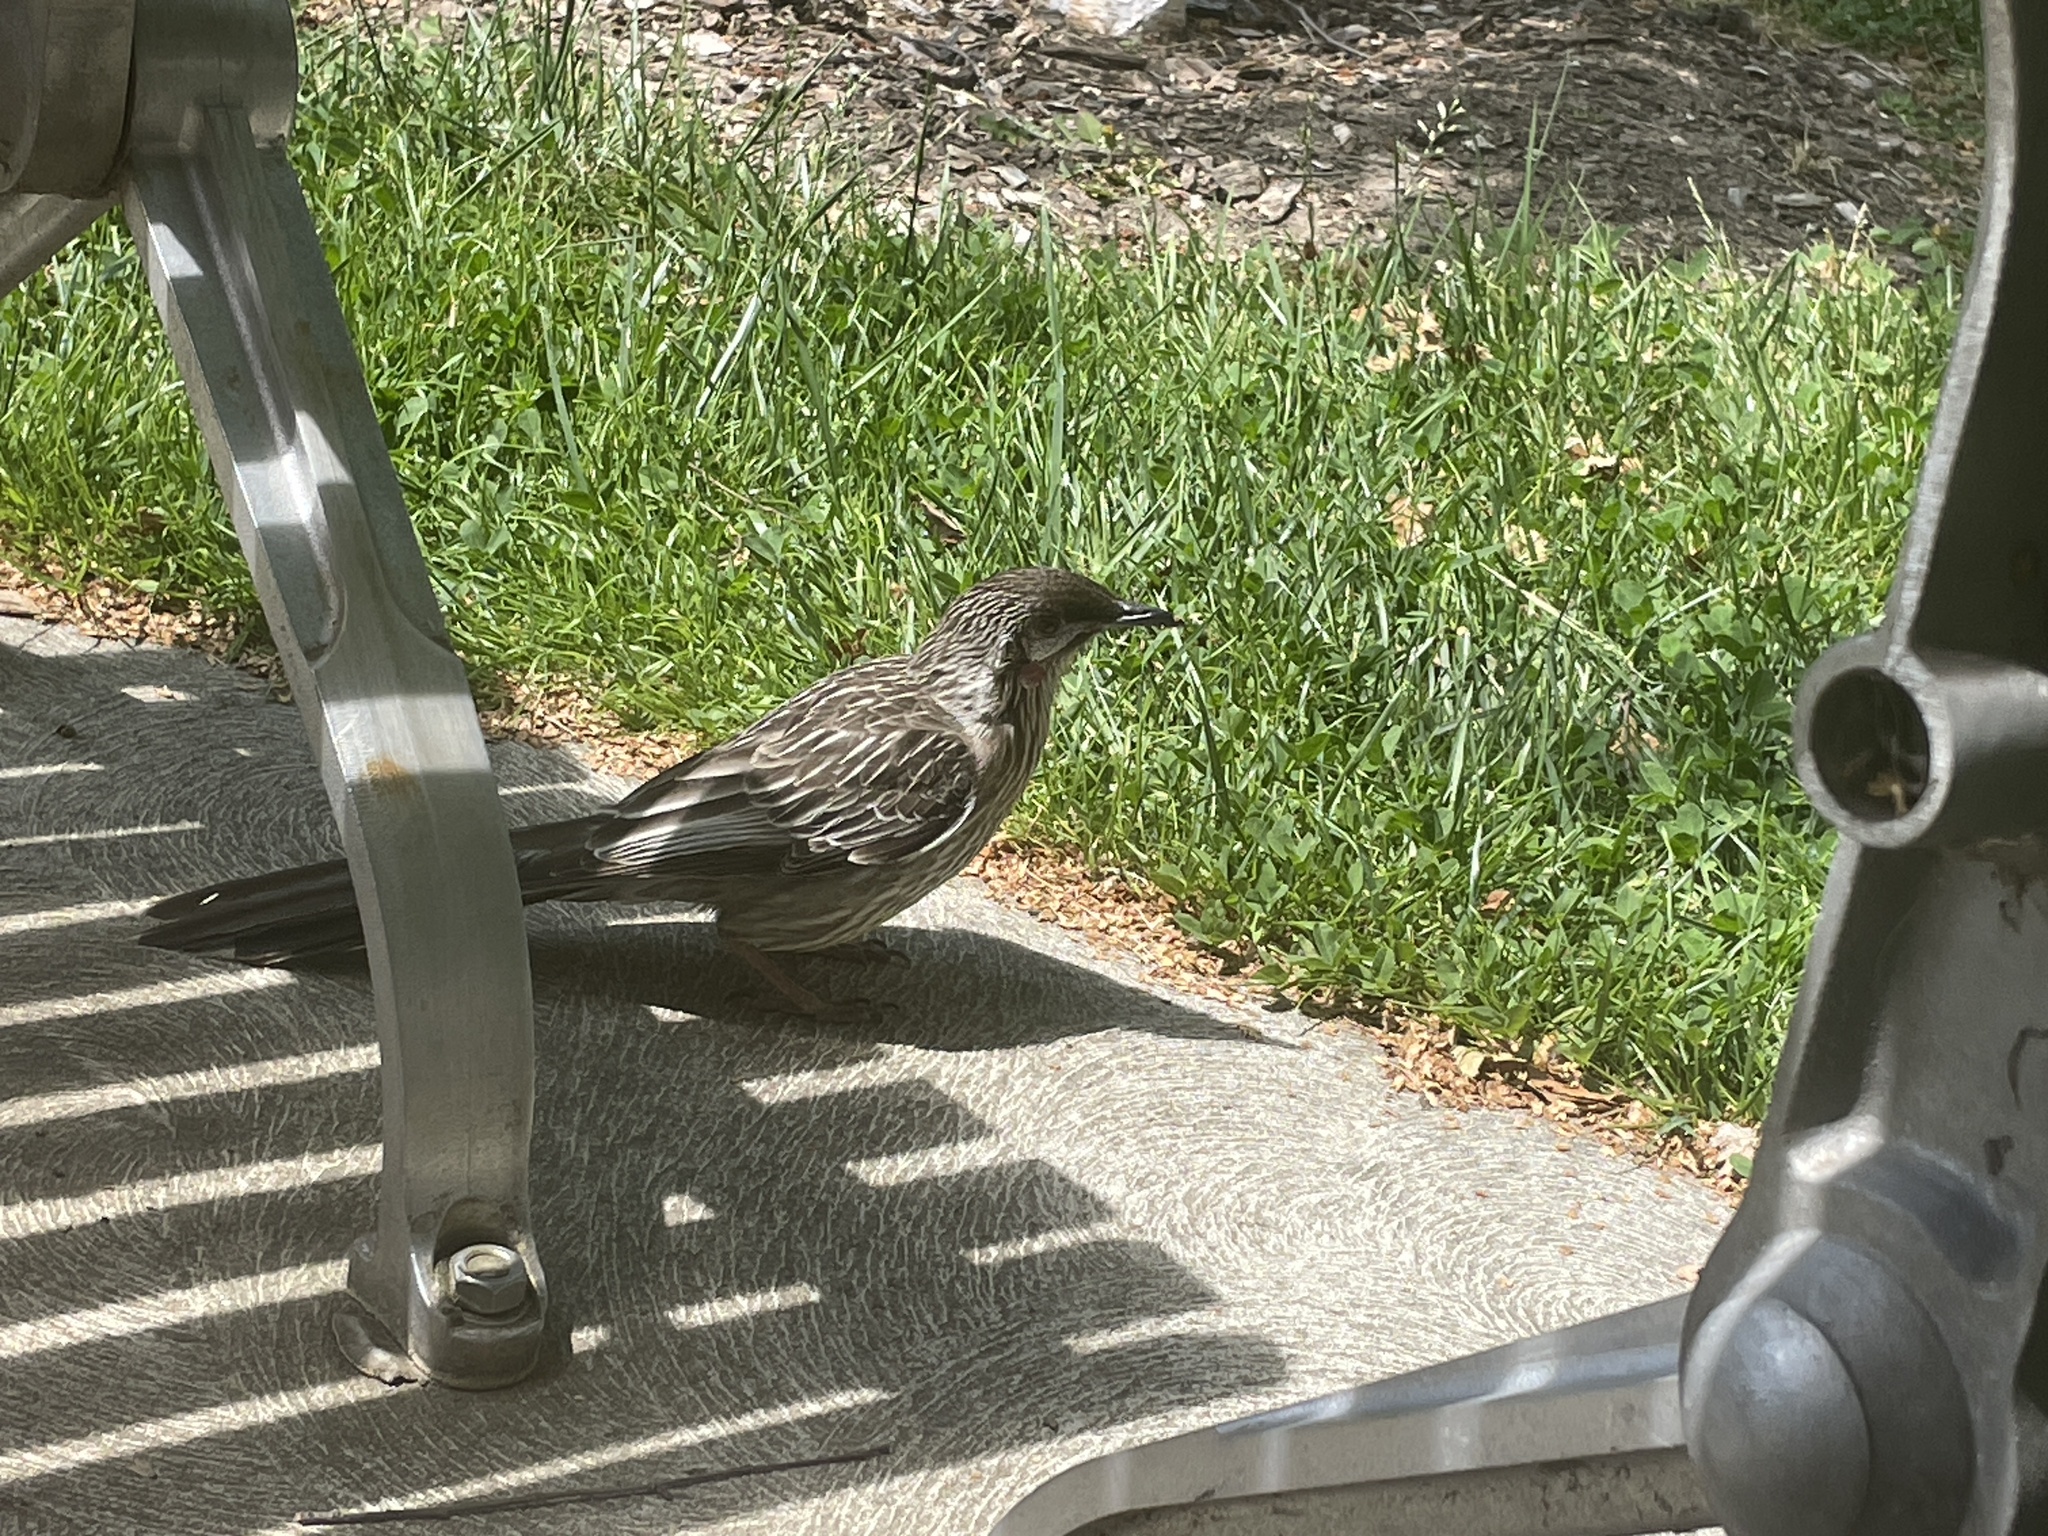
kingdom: Animalia
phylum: Chordata
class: Aves
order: Passeriformes
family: Meliphagidae
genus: Anthochaera
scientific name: Anthochaera carunculata
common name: Red wattlebird
